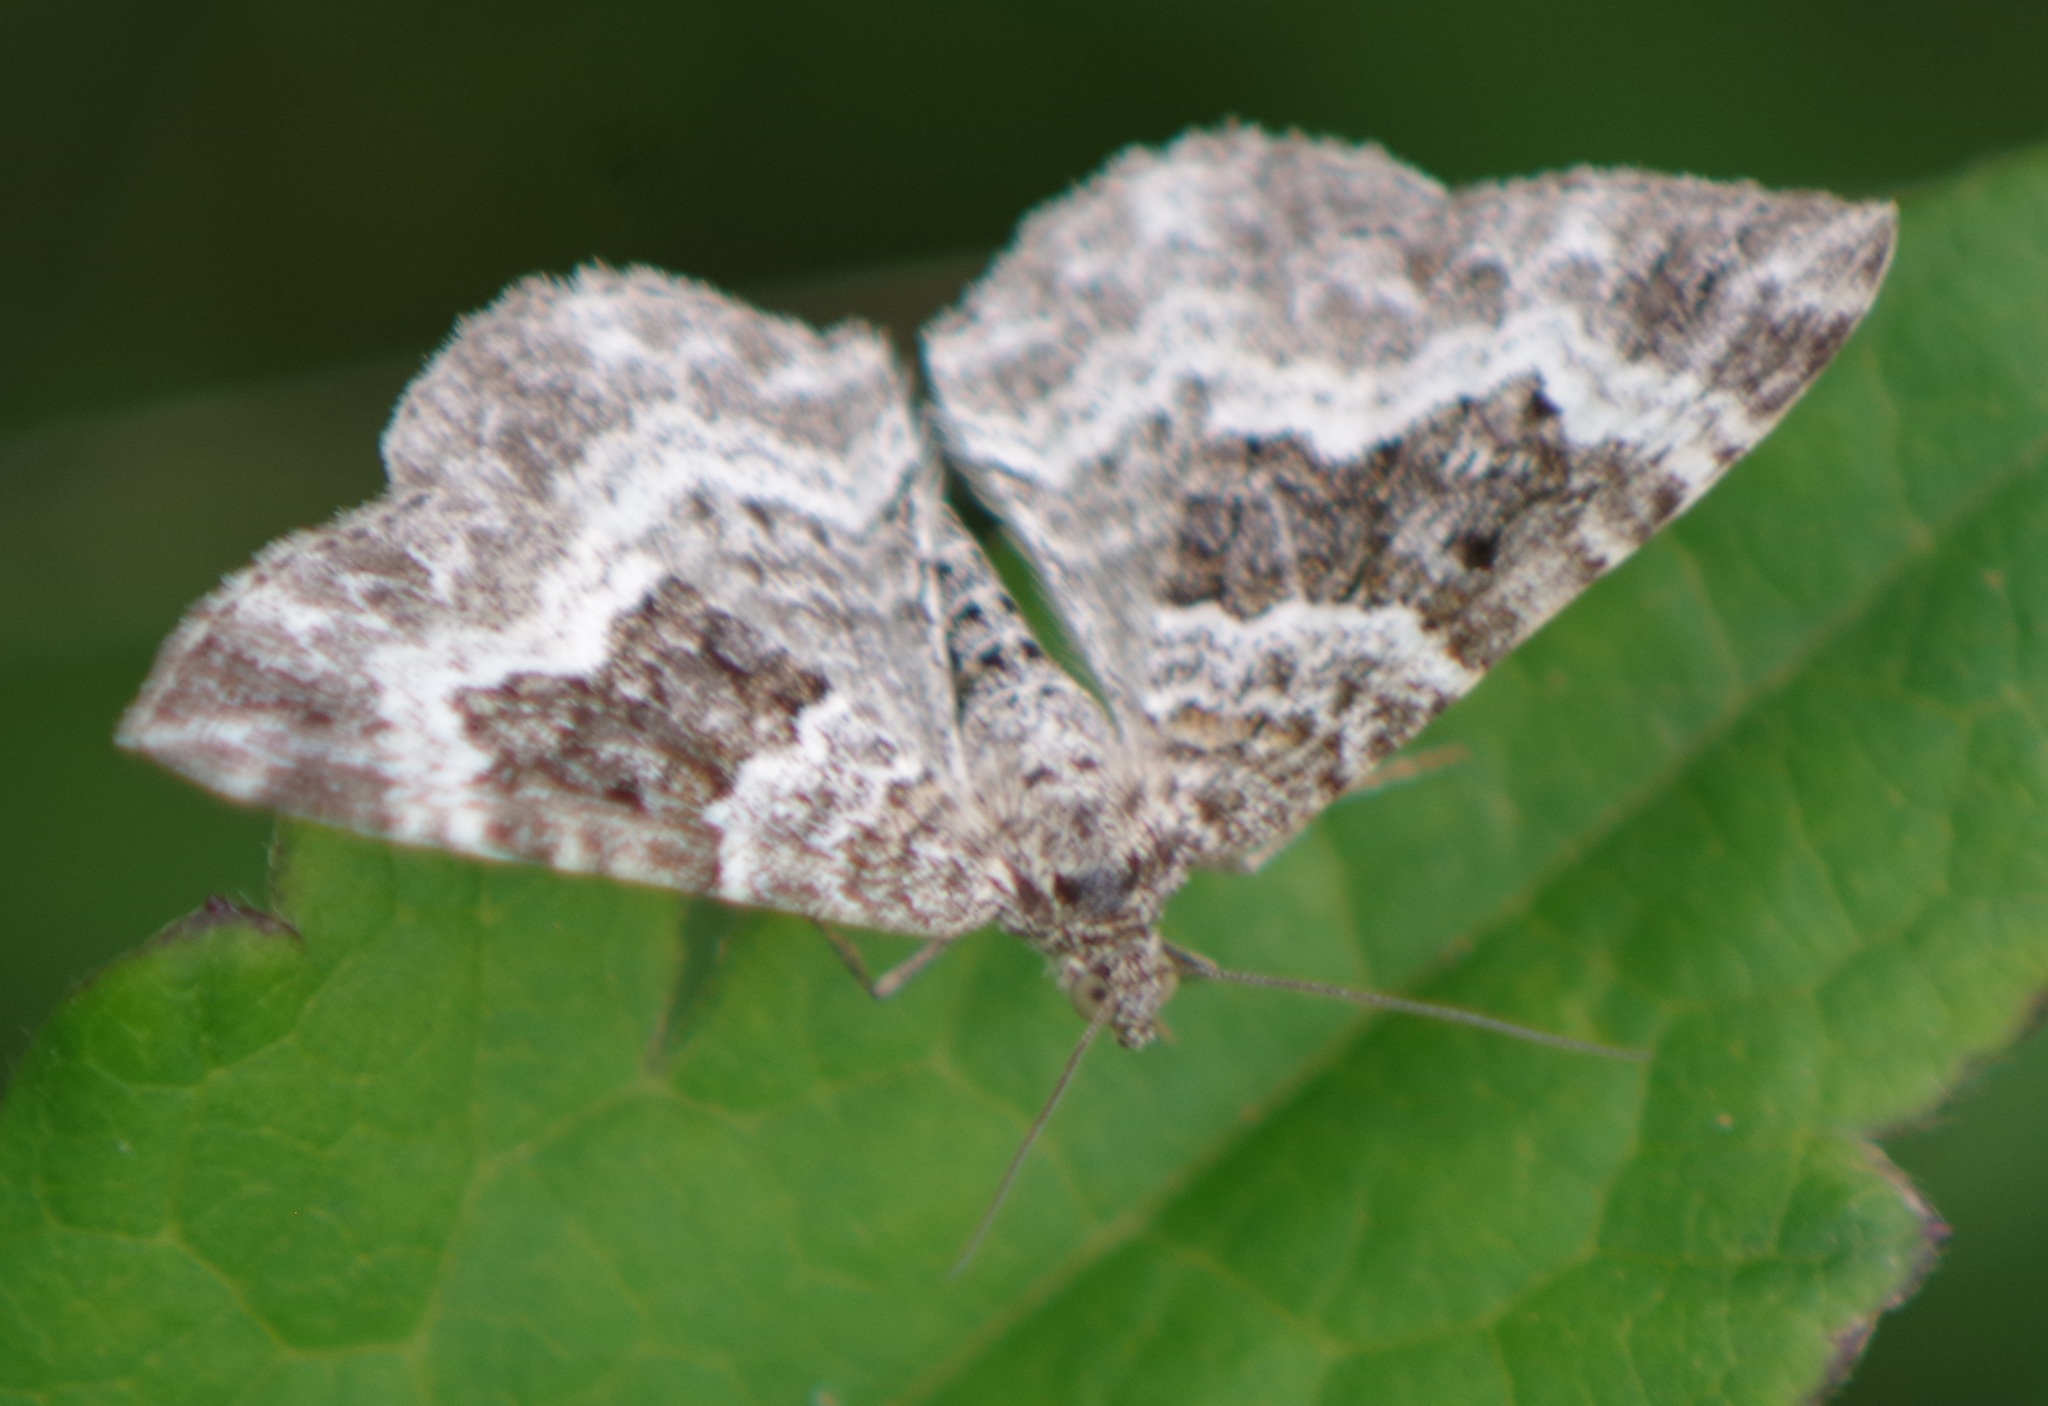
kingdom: Animalia
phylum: Arthropoda
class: Insecta
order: Lepidoptera
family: Geometridae
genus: Epirrhoe
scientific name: Epirrhoe alternata
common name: Common carpet
